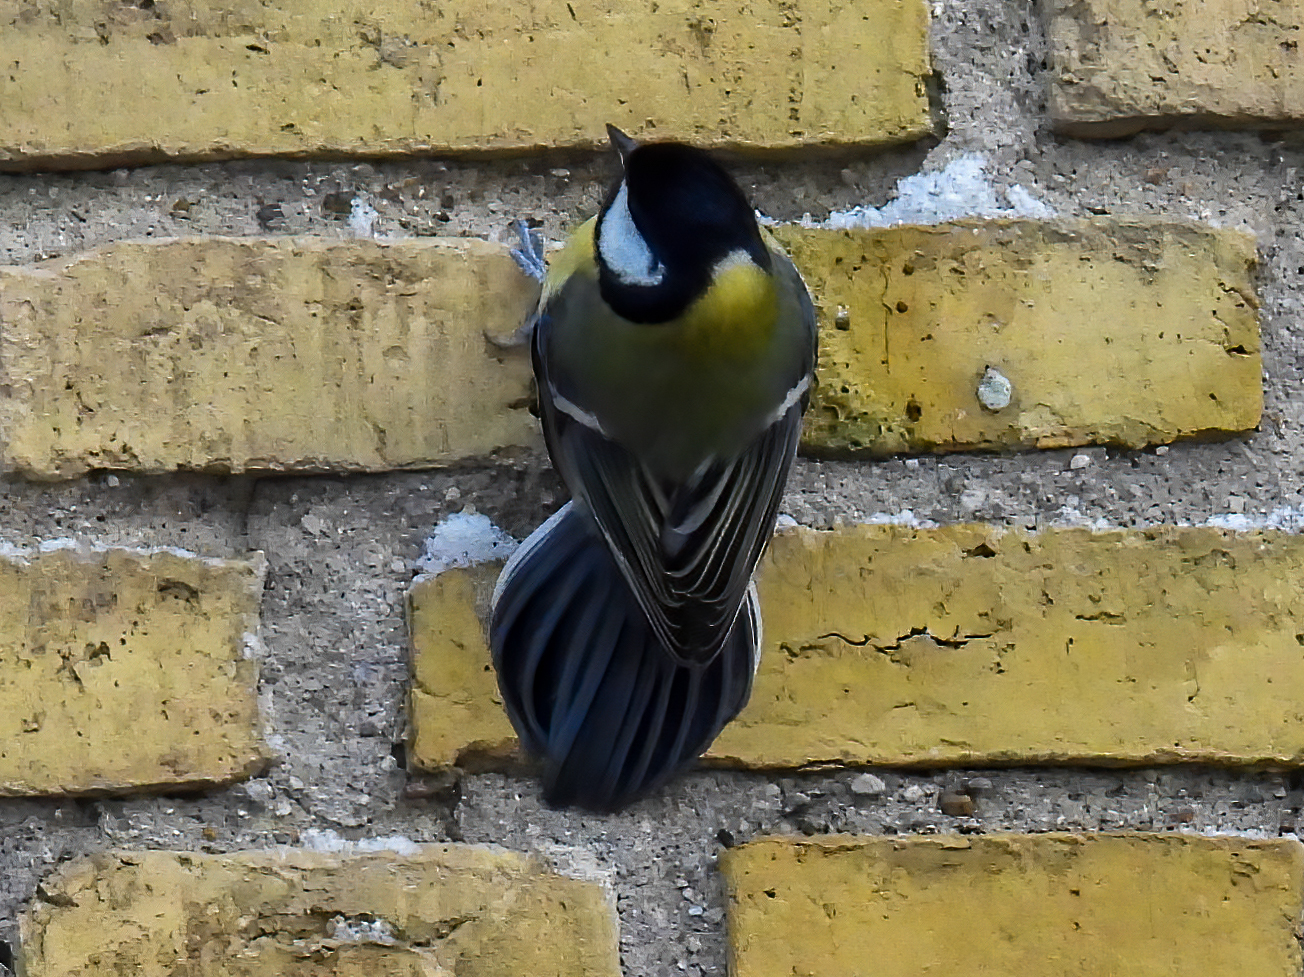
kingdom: Animalia
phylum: Chordata
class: Aves
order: Passeriformes
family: Paridae
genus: Parus
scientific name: Parus major
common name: Great tit
